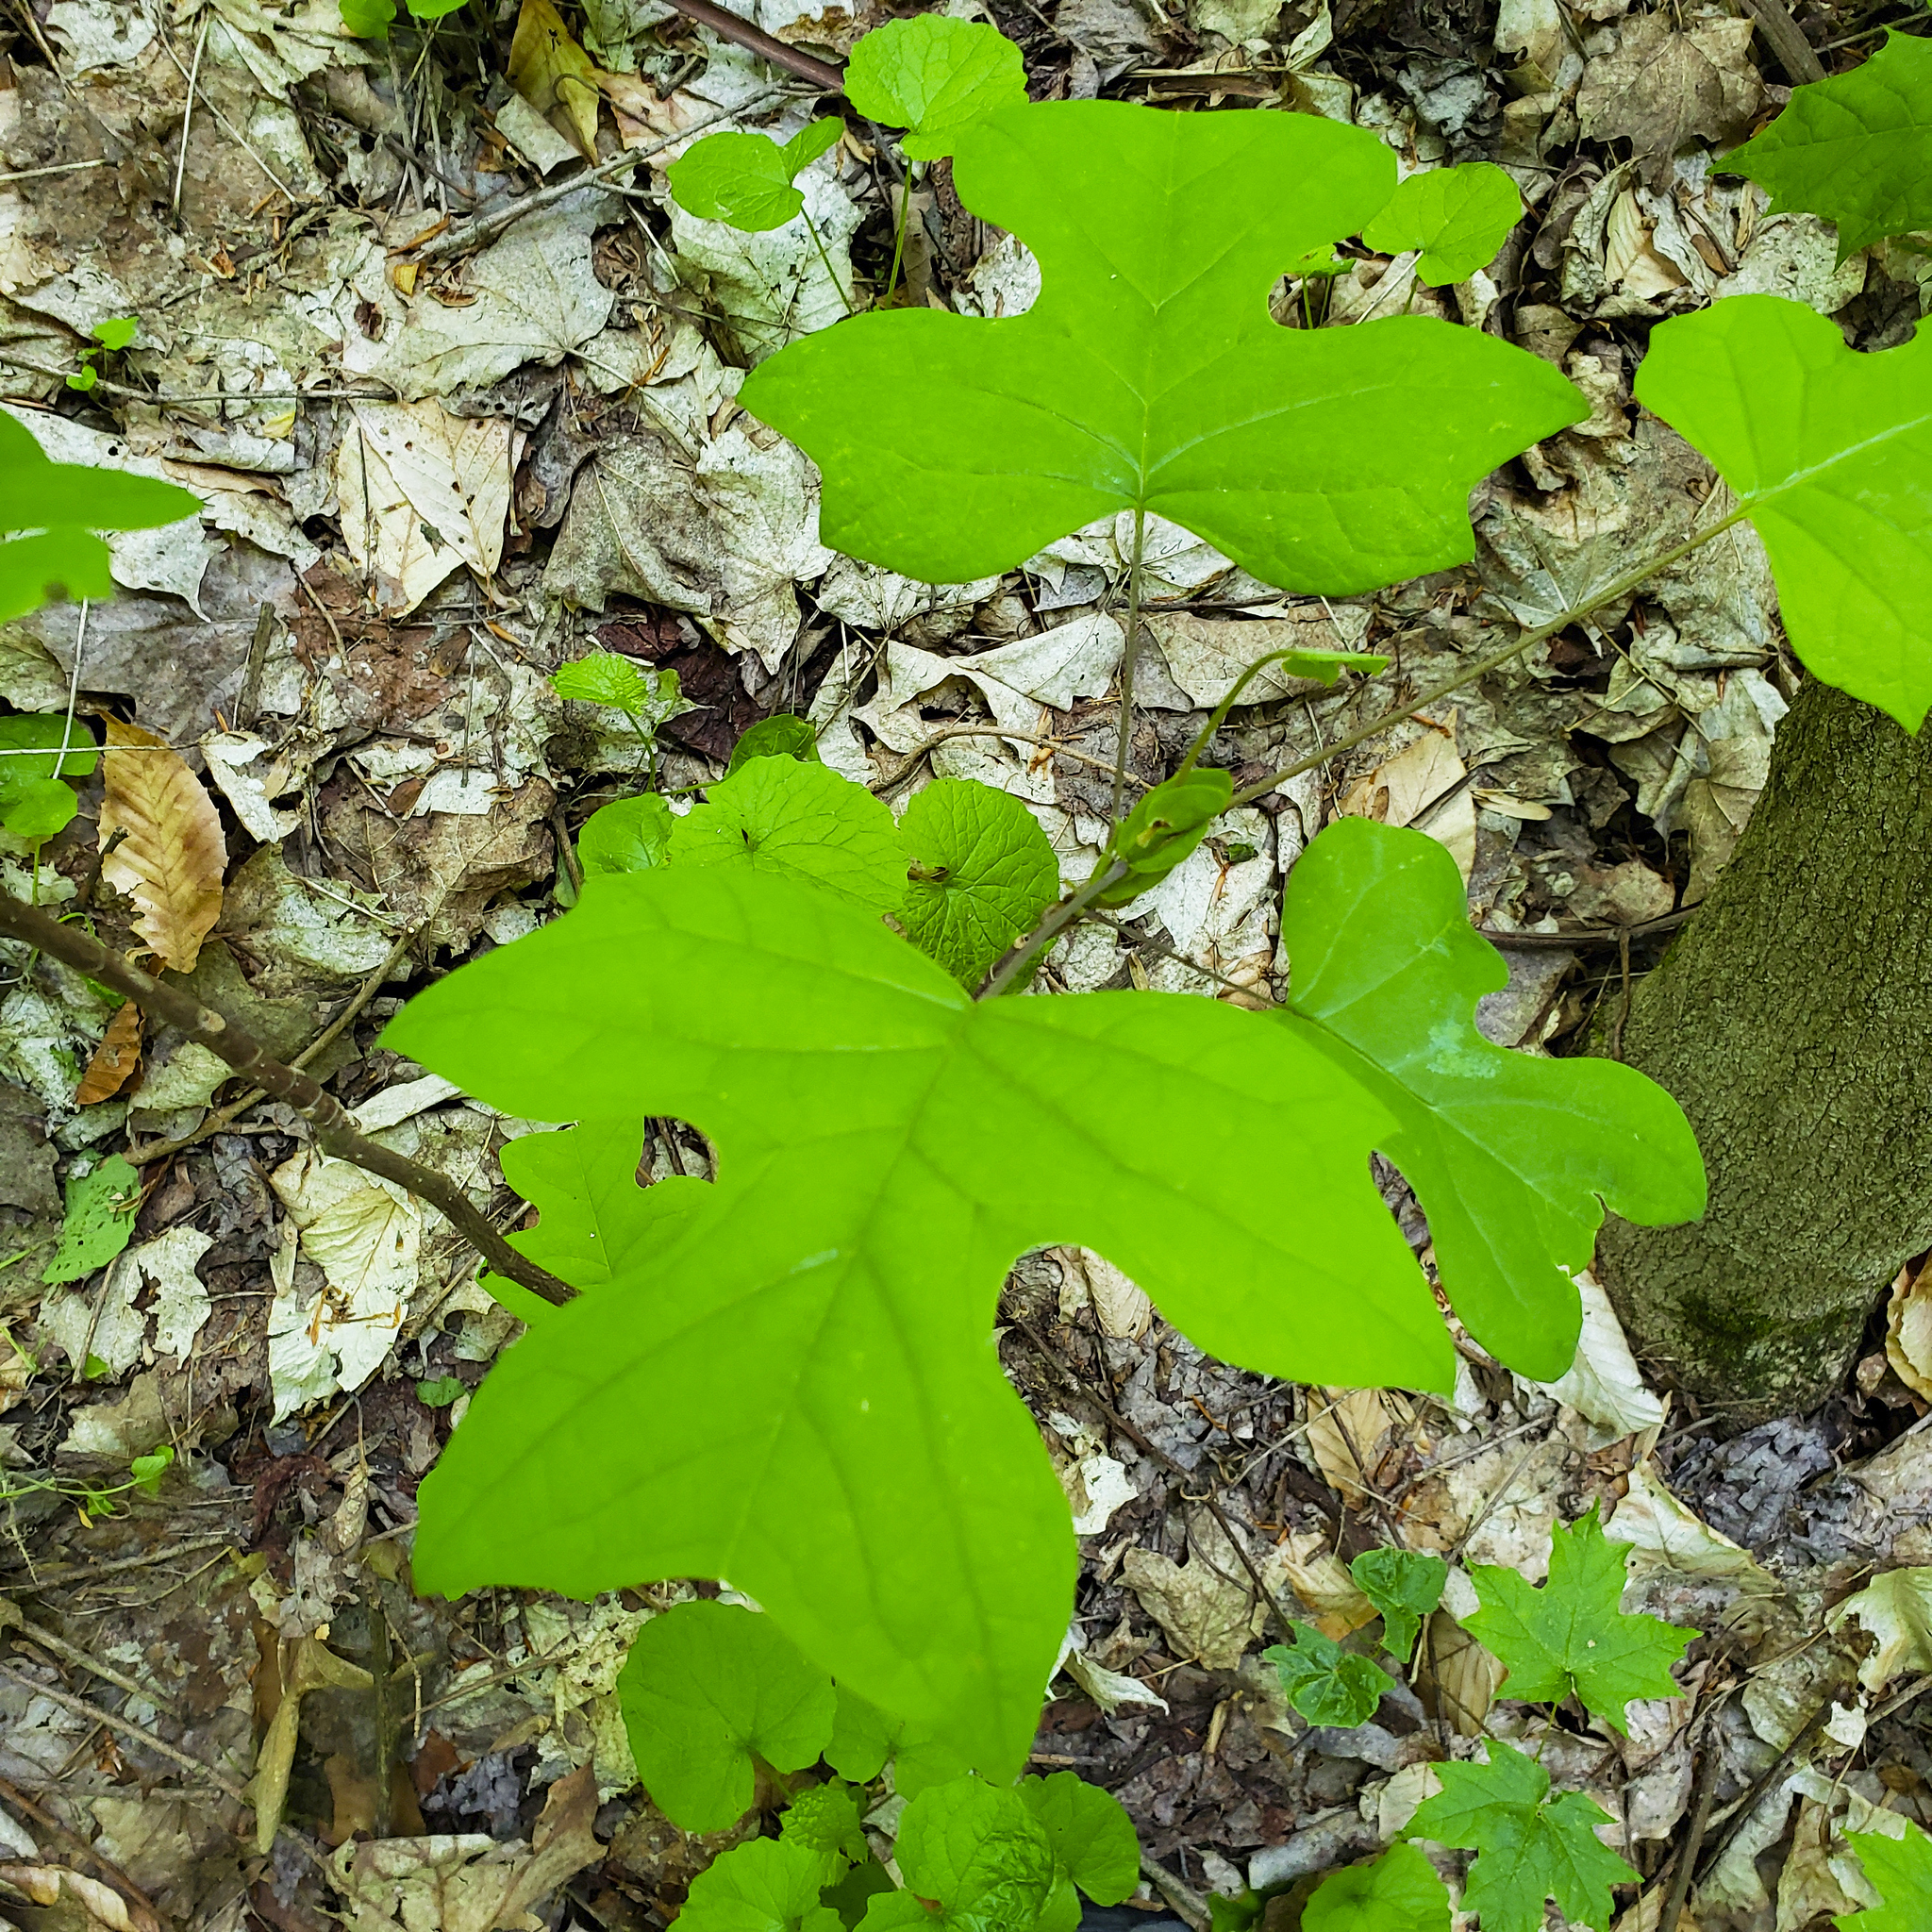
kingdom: Plantae
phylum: Tracheophyta
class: Magnoliopsida
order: Magnoliales
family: Magnoliaceae
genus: Liriodendron
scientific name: Liriodendron tulipifera
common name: Tulip tree
